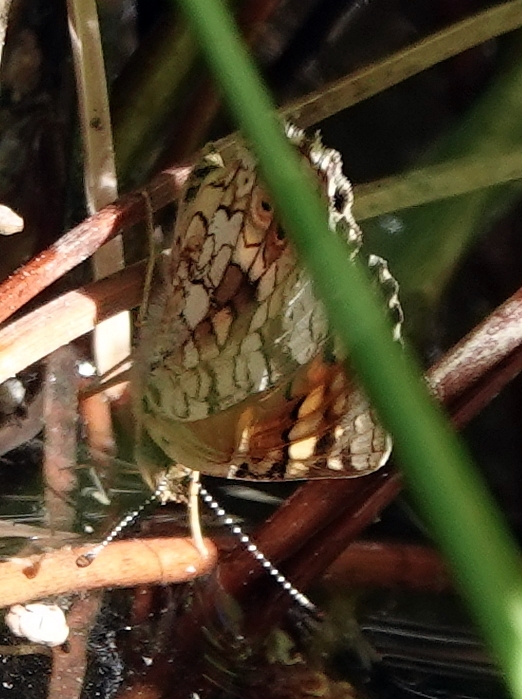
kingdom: Animalia
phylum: Arthropoda
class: Insecta
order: Lepidoptera
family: Nymphalidae
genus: Phyciodes
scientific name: Phyciodes tharos
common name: Pearl crescent
